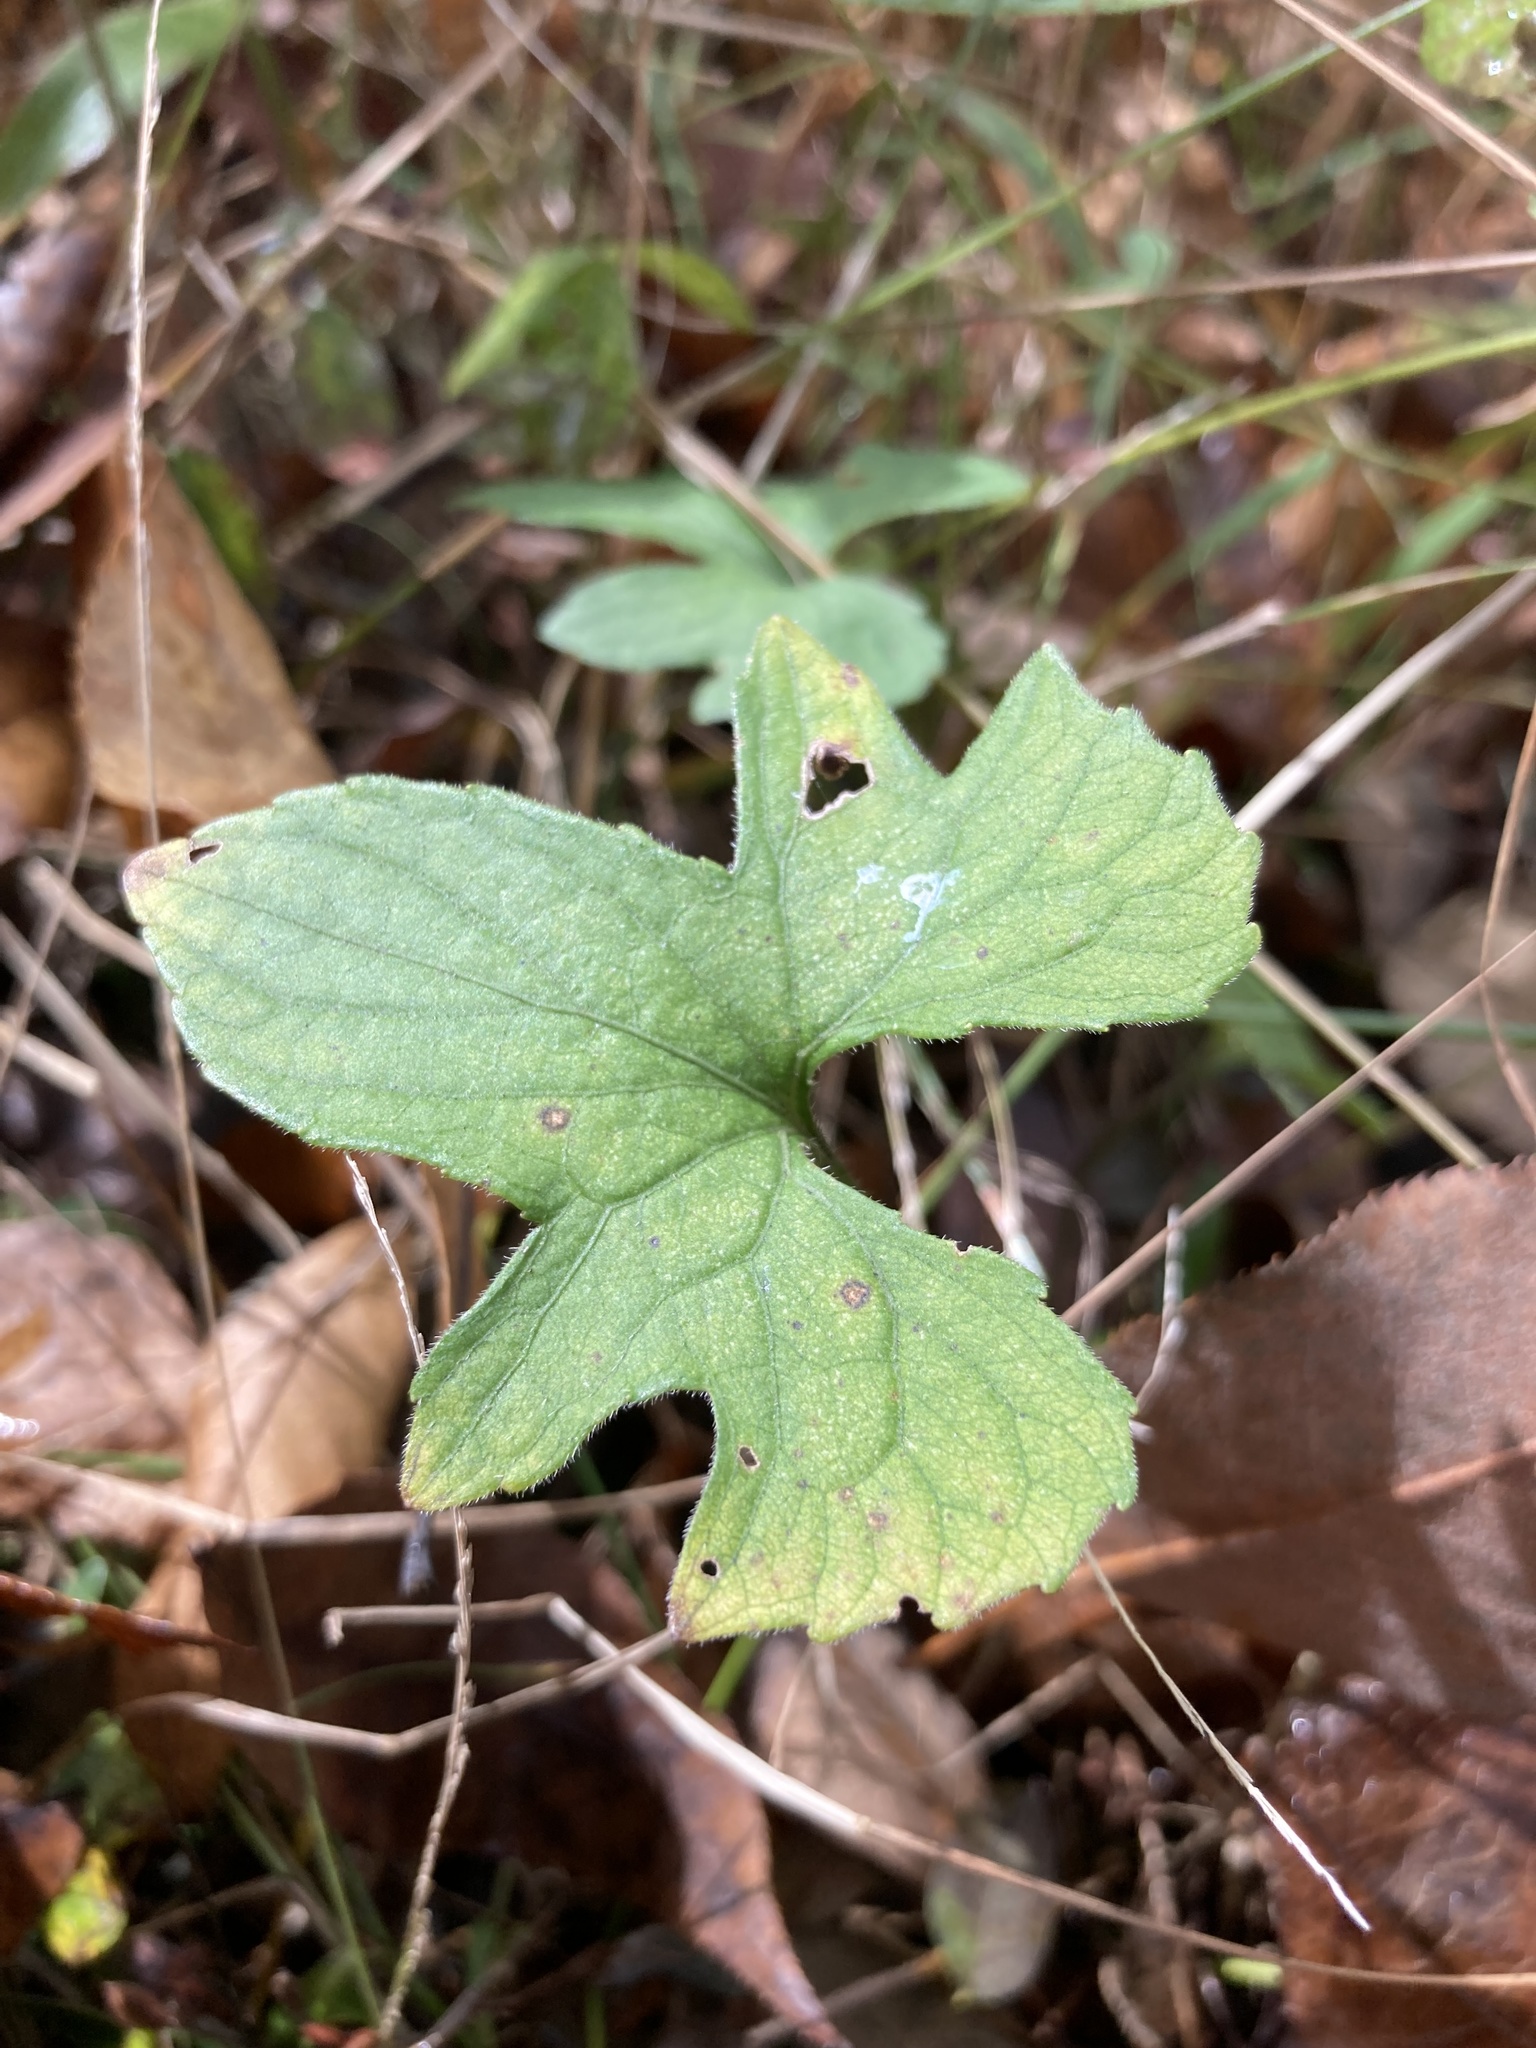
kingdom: Plantae
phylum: Tracheophyta
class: Magnoliopsida
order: Malpighiales
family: Violaceae
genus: Viola
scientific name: Viola palmata
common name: Early blue violet
